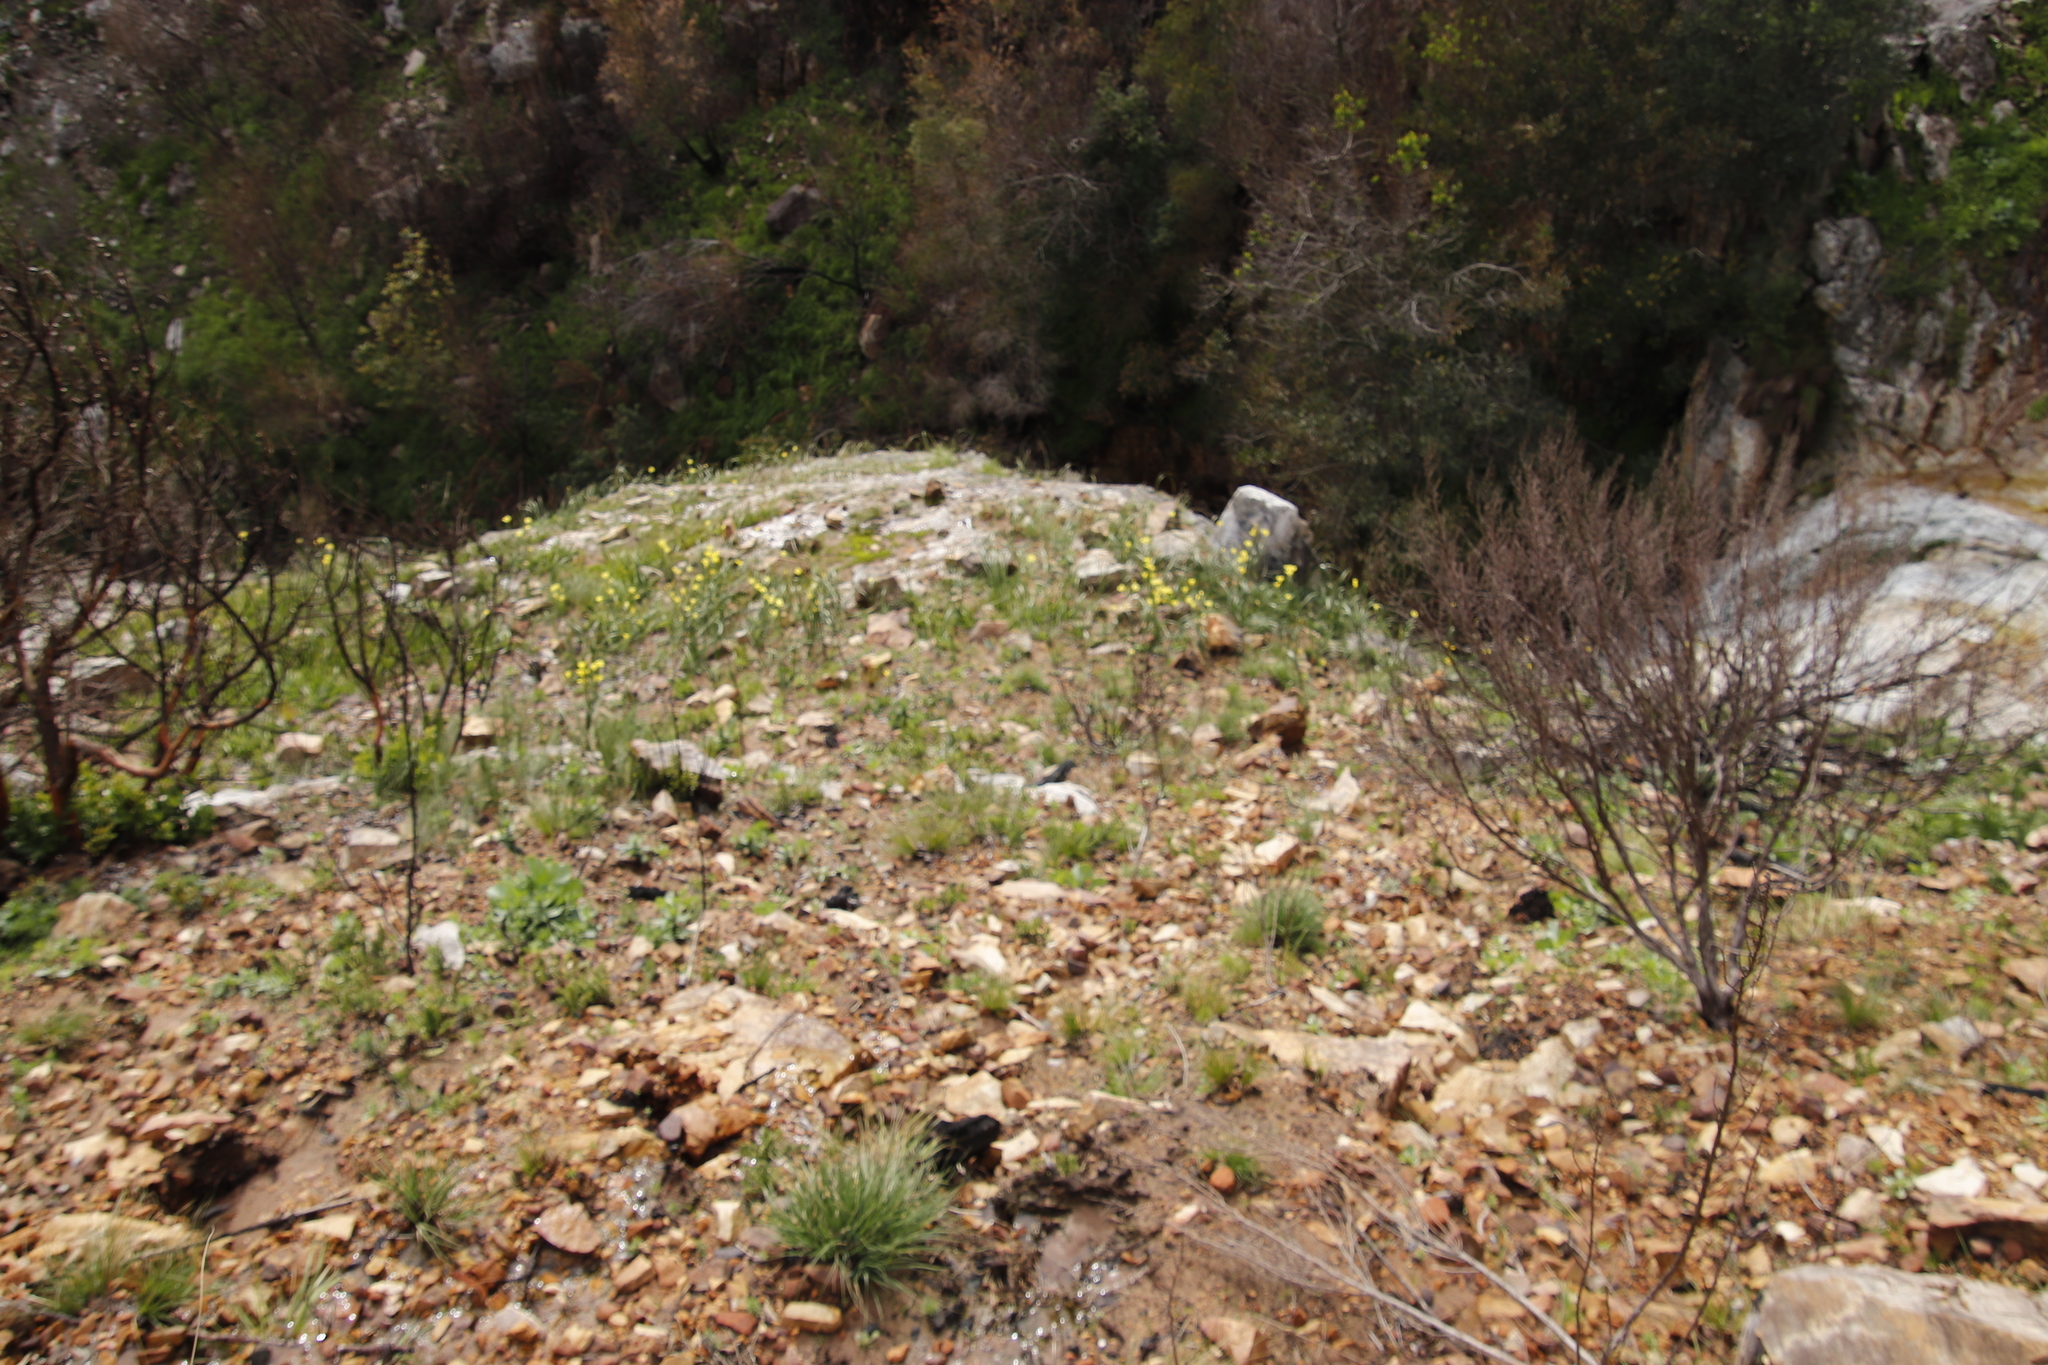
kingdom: Plantae
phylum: Tracheophyta
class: Liliopsida
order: Asparagales
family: Iridaceae
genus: Moraea
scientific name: Moraea ochroleuca
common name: Red tulp
